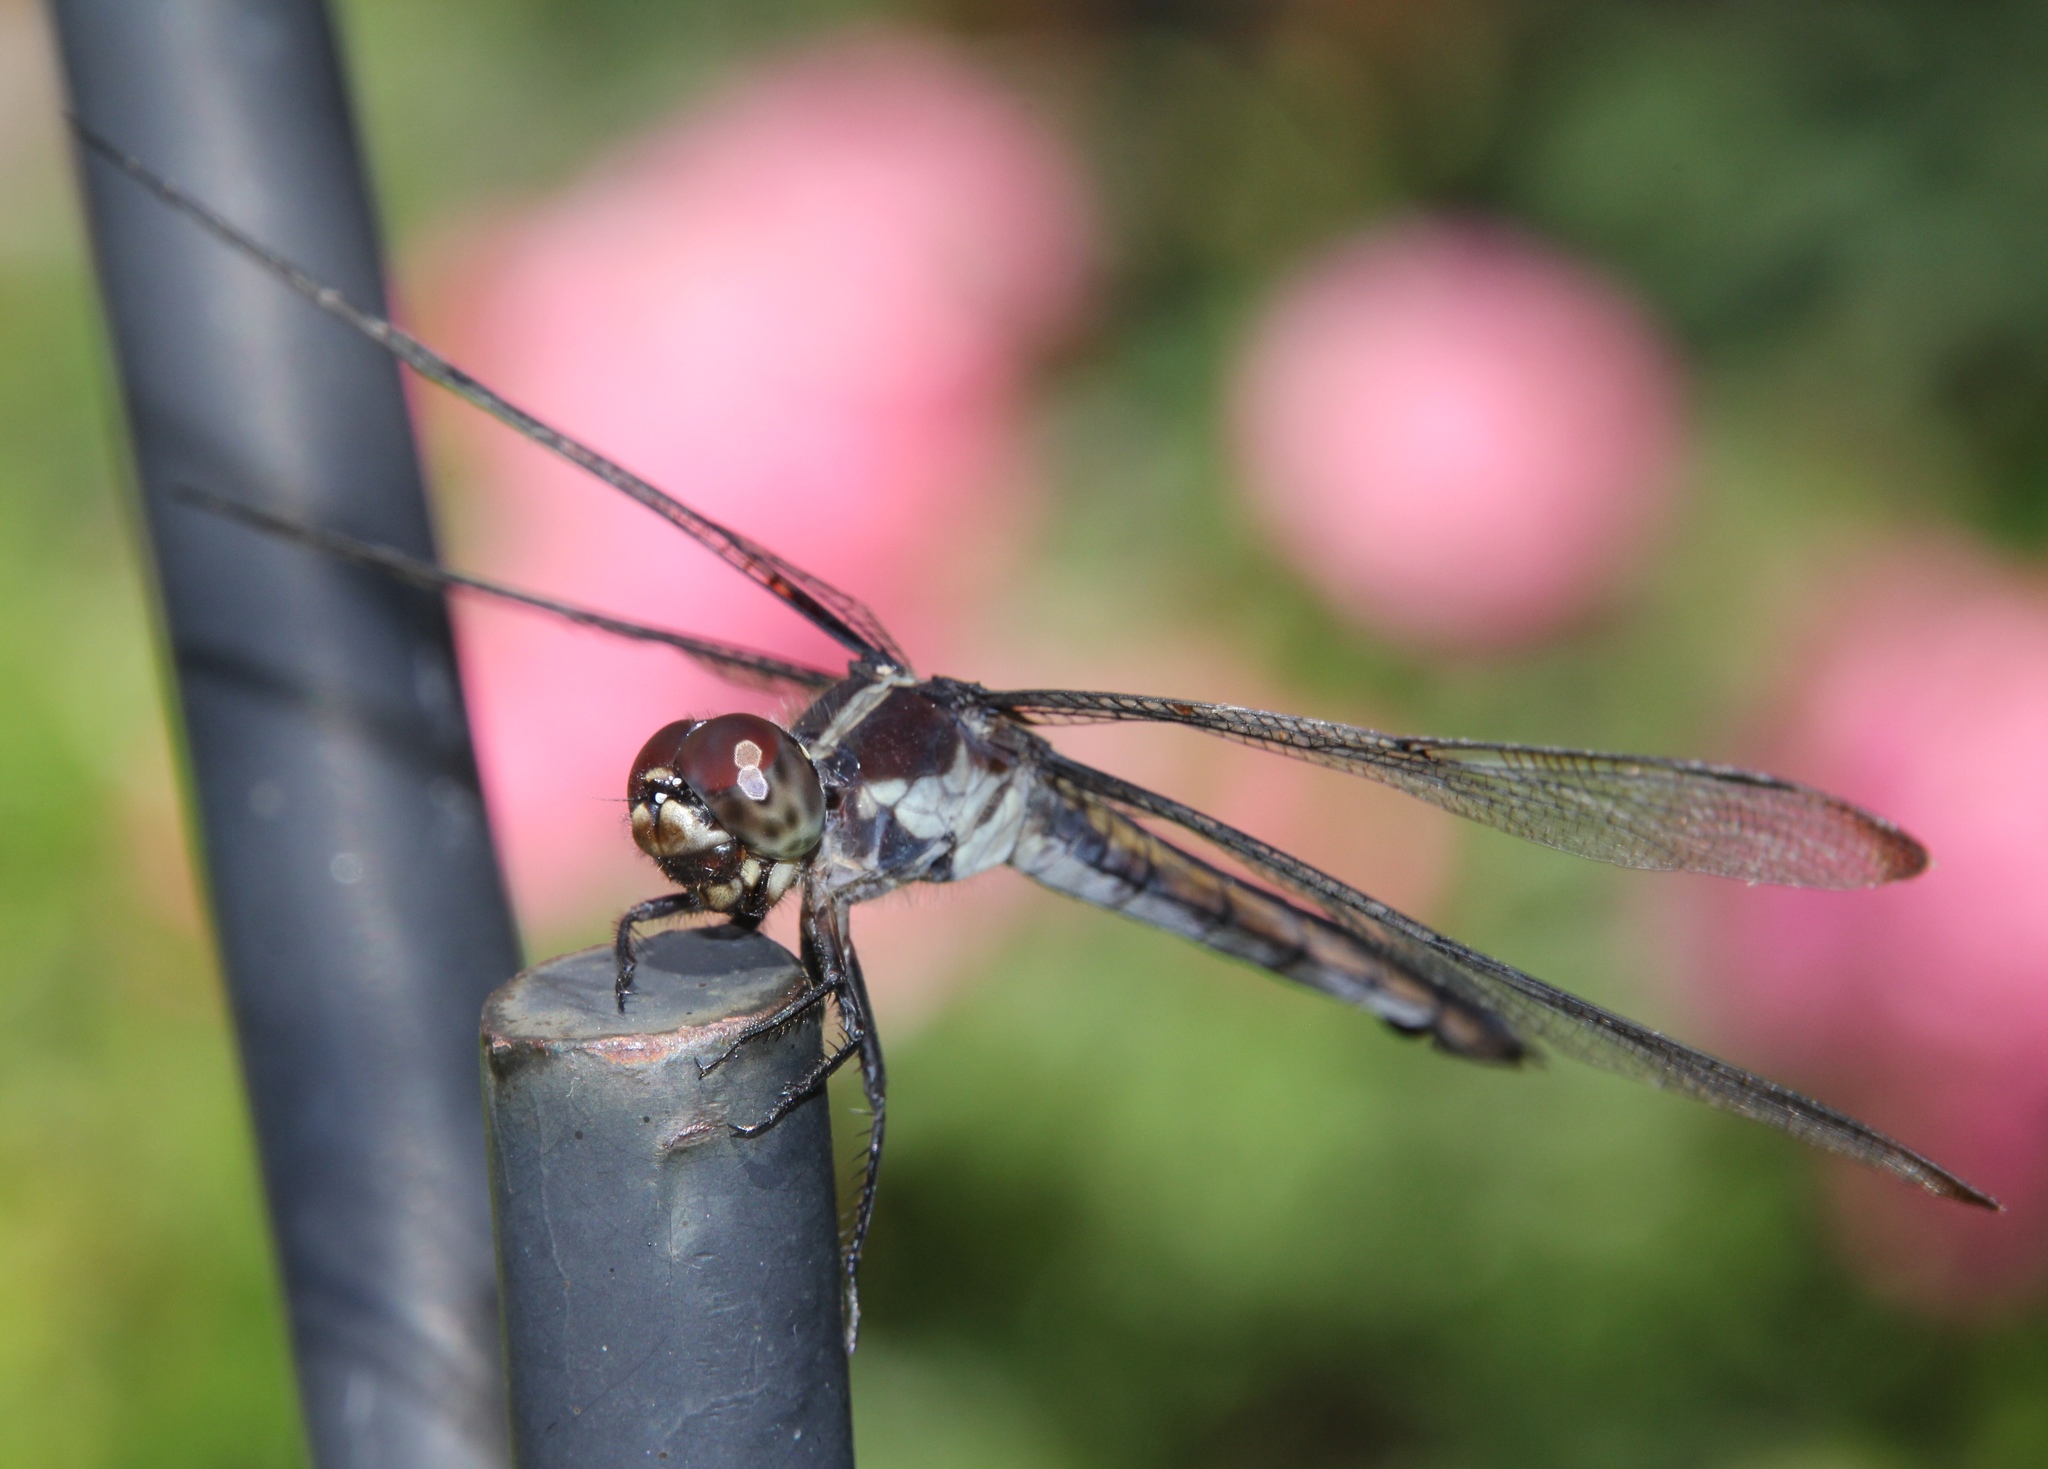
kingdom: Animalia
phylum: Arthropoda
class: Insecta
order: Odonata
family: Libellulidae
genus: Libellula
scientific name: Libellula incesta
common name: Slaty skimmer
